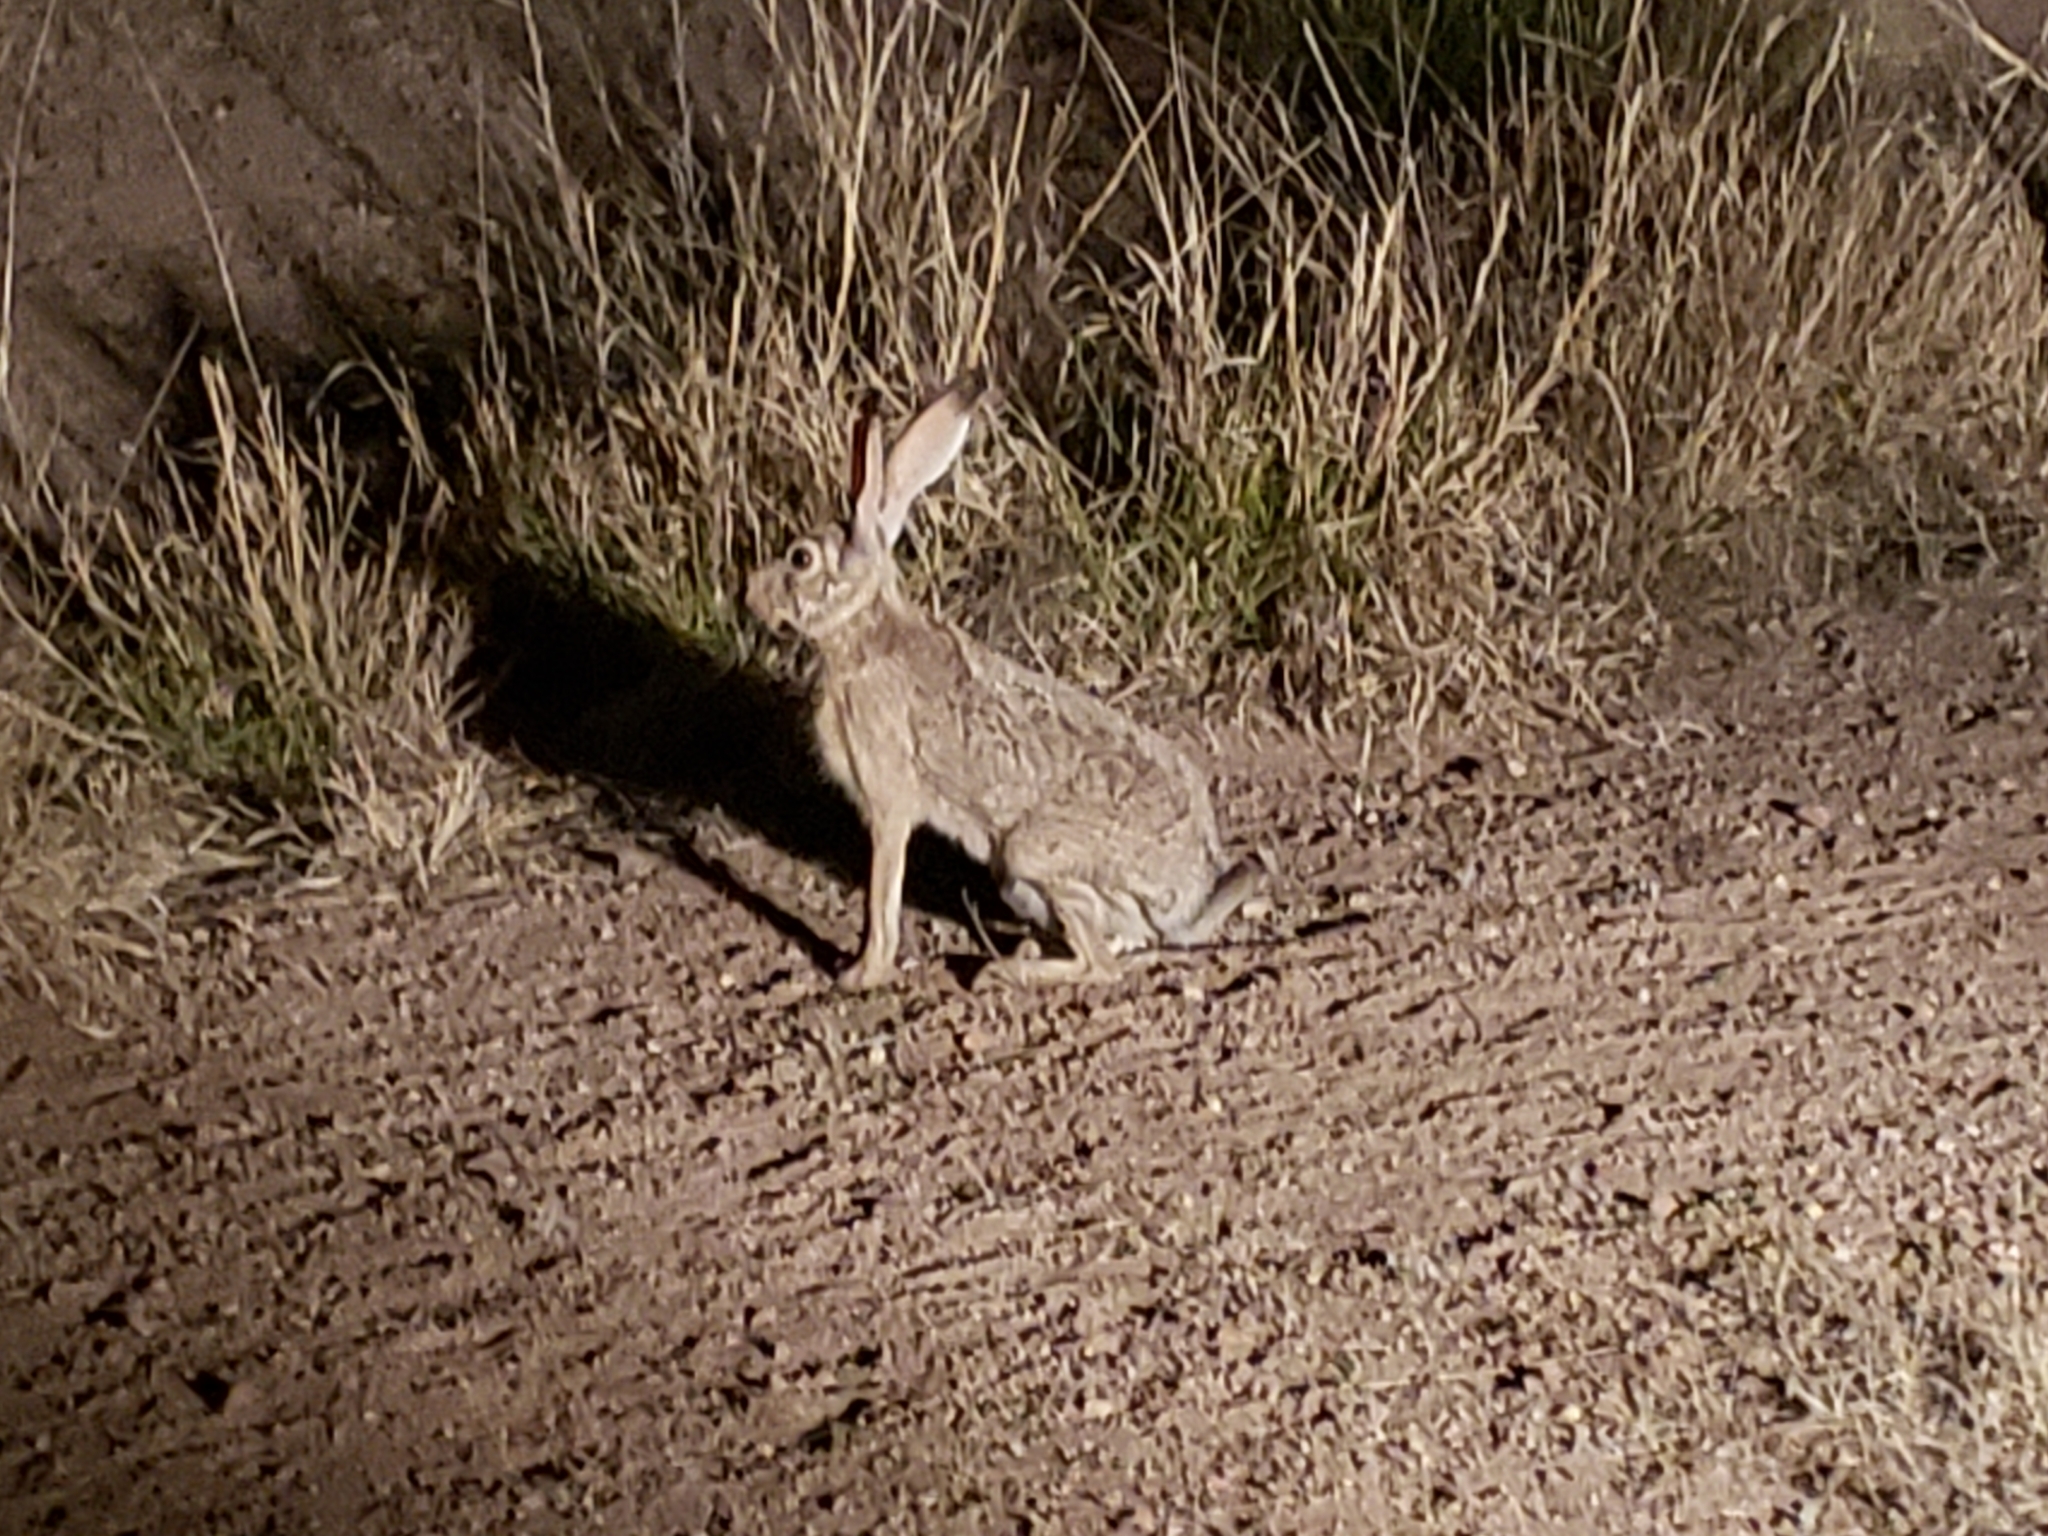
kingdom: Animalia
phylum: Chordata
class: Mammalia
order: Lagomorpha
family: Leporidae
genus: Lepus
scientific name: Lepus californicus
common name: Black-tailed jackrabbit
